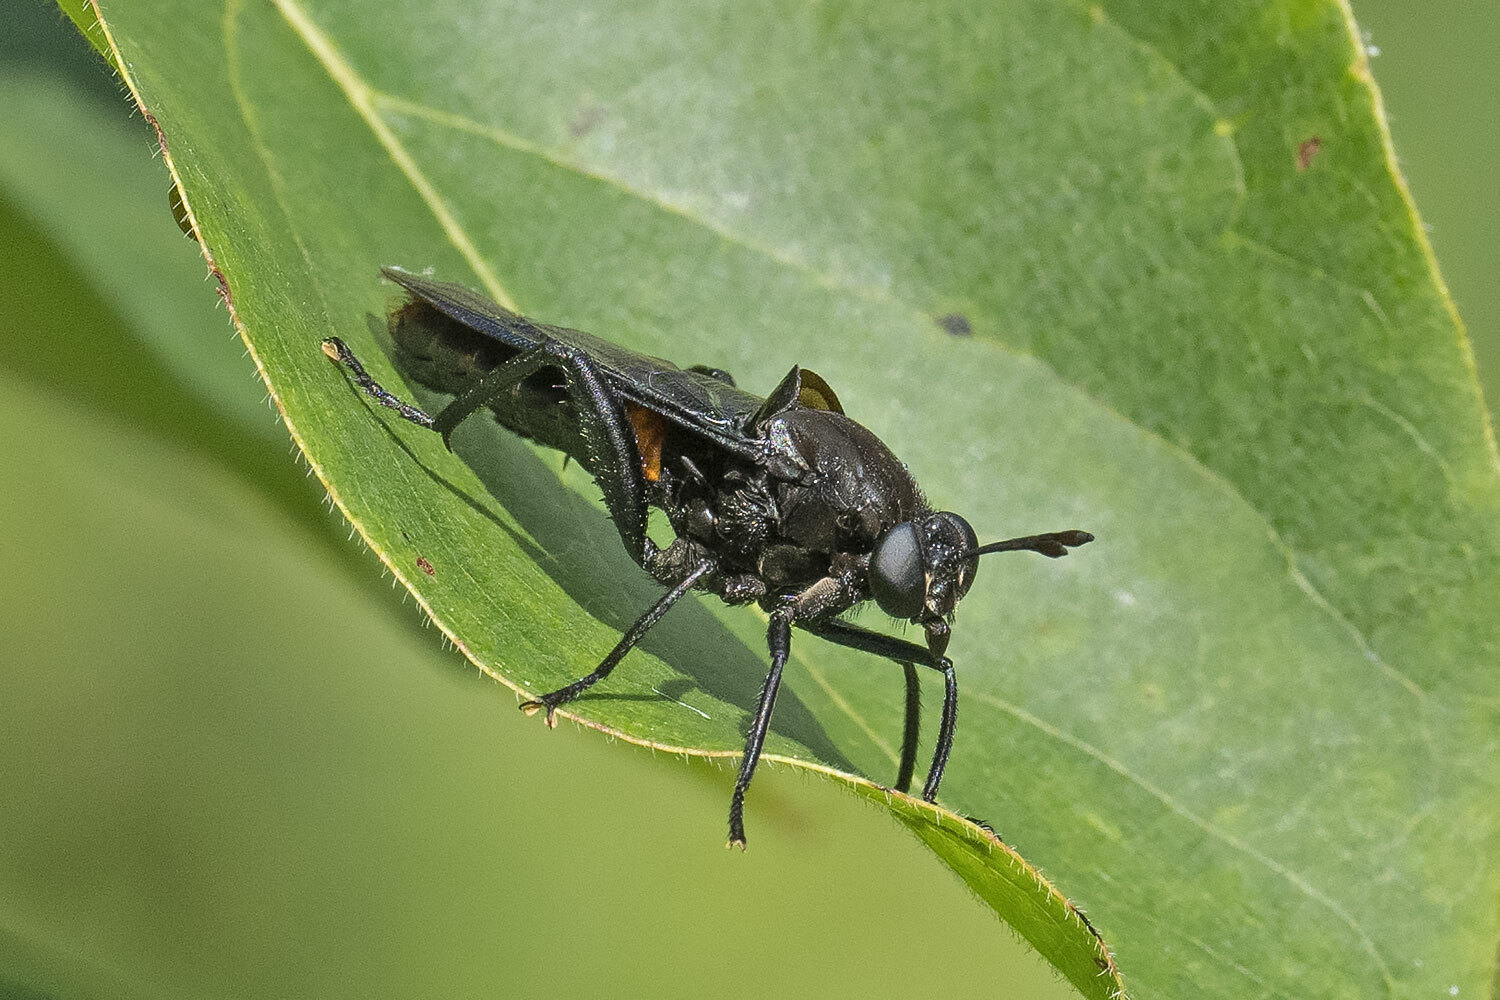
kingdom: Animalia
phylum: Arthropoda
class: Insecta
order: Diptera
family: Mydidae
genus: Mydas
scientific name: Mydas clavatus
